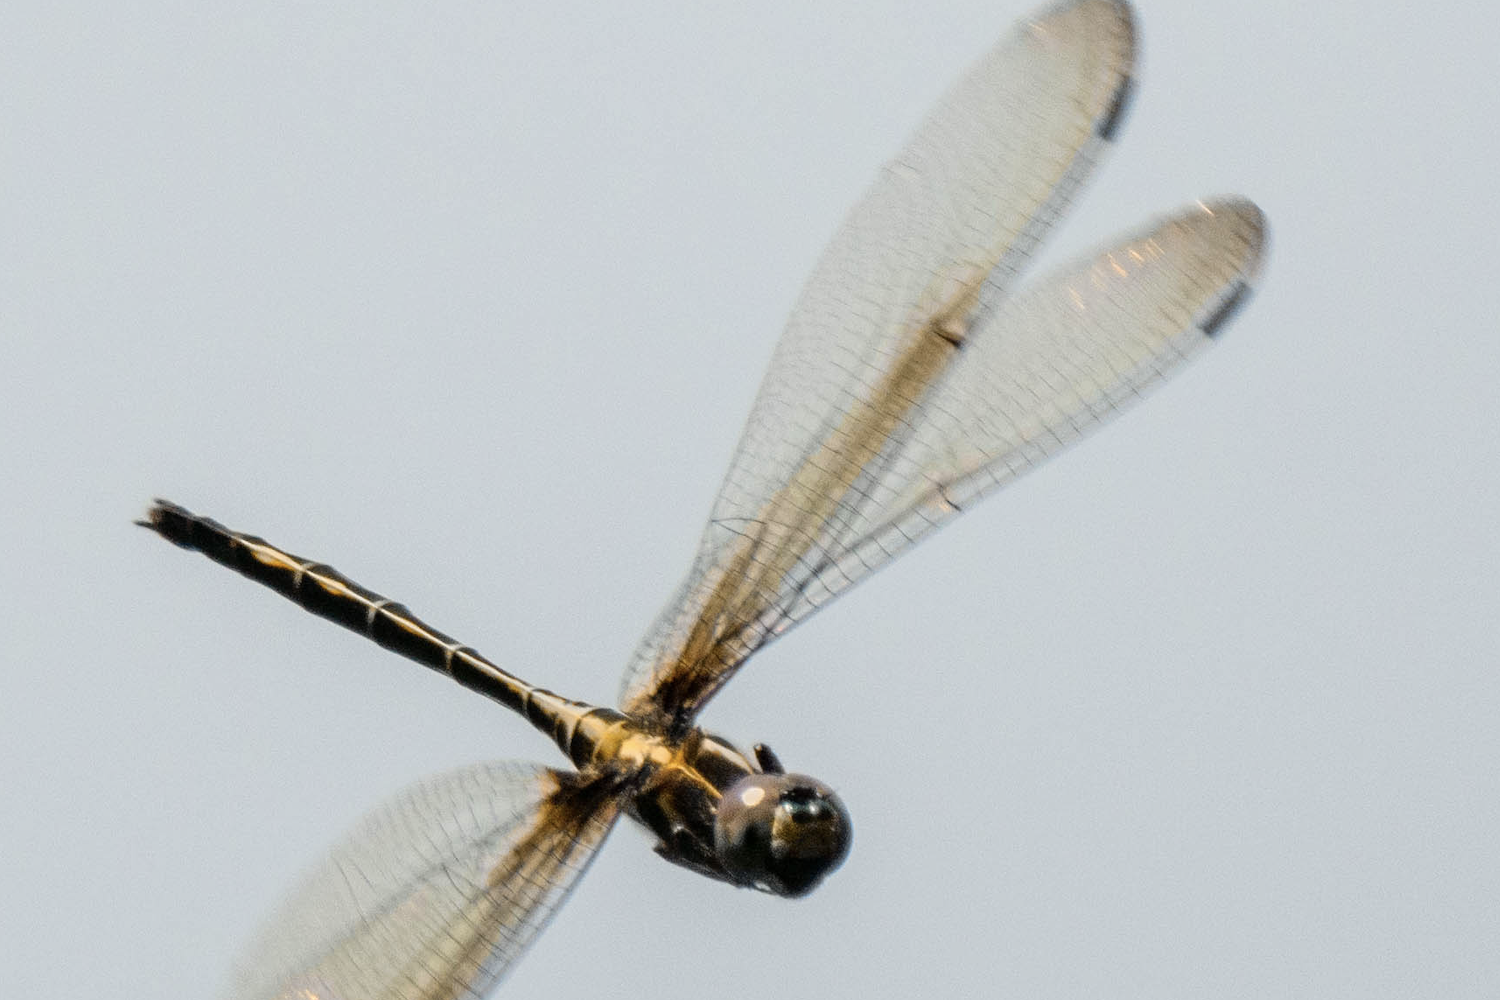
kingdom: Animalia
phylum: Arthropoda
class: Insecta
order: Odonata
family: Libellulidae
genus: Zygonyx
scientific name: Zygonyx iris
